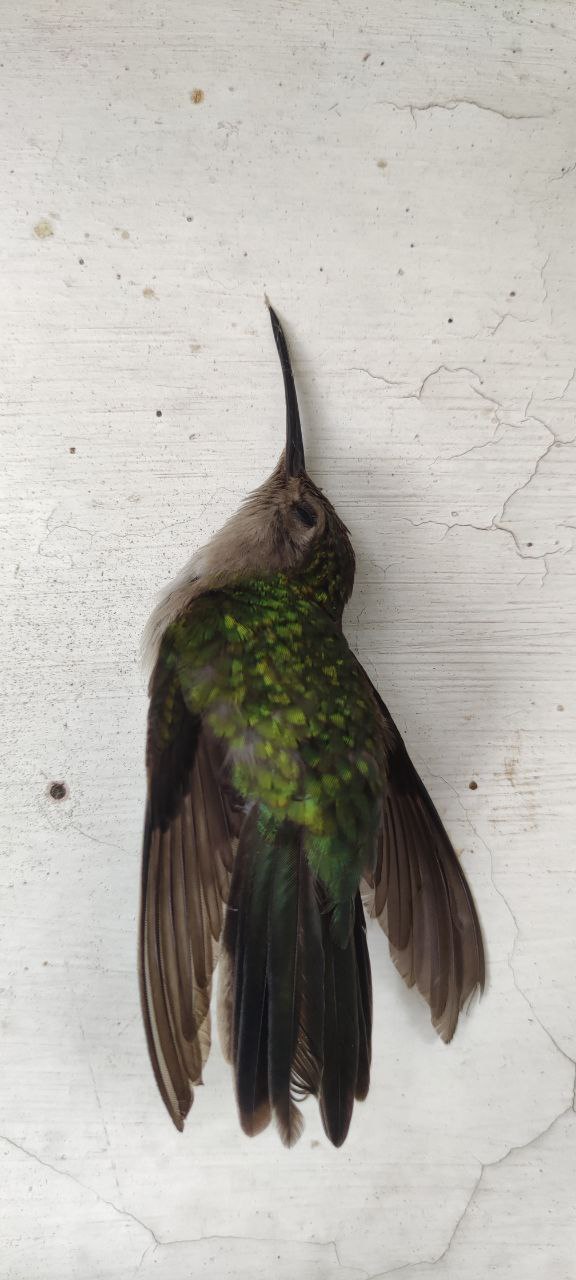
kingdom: Animalia
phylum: Chordata
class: Aves
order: Apodiformes
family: Trochilidae
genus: Pampa
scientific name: Pampa curvipennis
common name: Curve-winged sabrewing
